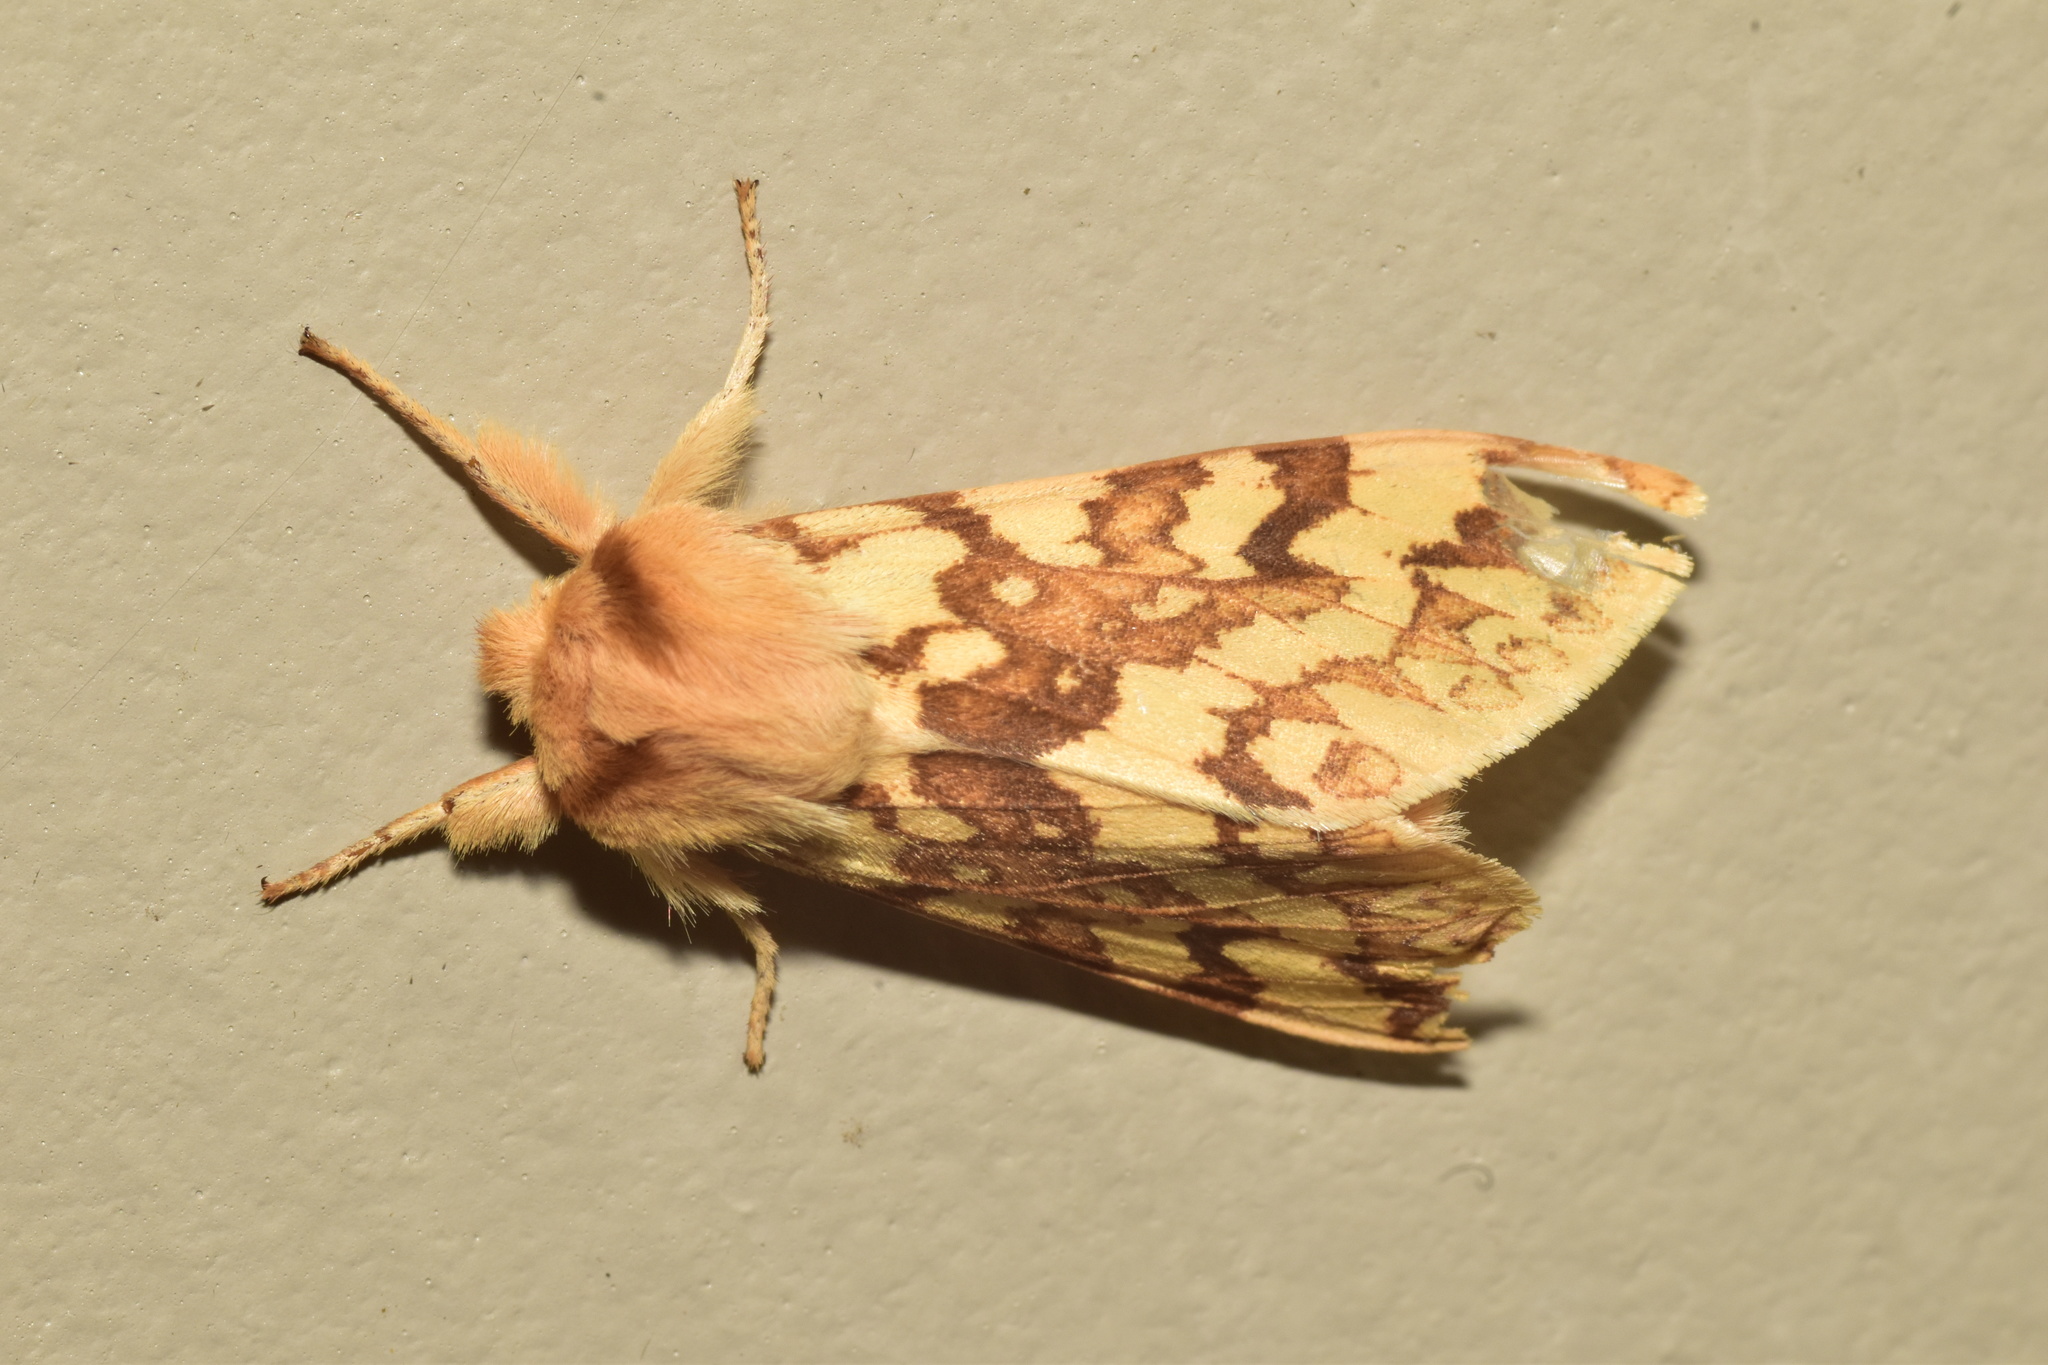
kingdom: Animalia
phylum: Arthropoda
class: Insecta
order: Lepidoptera
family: Erebidae
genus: Lophocampa
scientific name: Lophocampa maculata
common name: Spotted tussock moth
